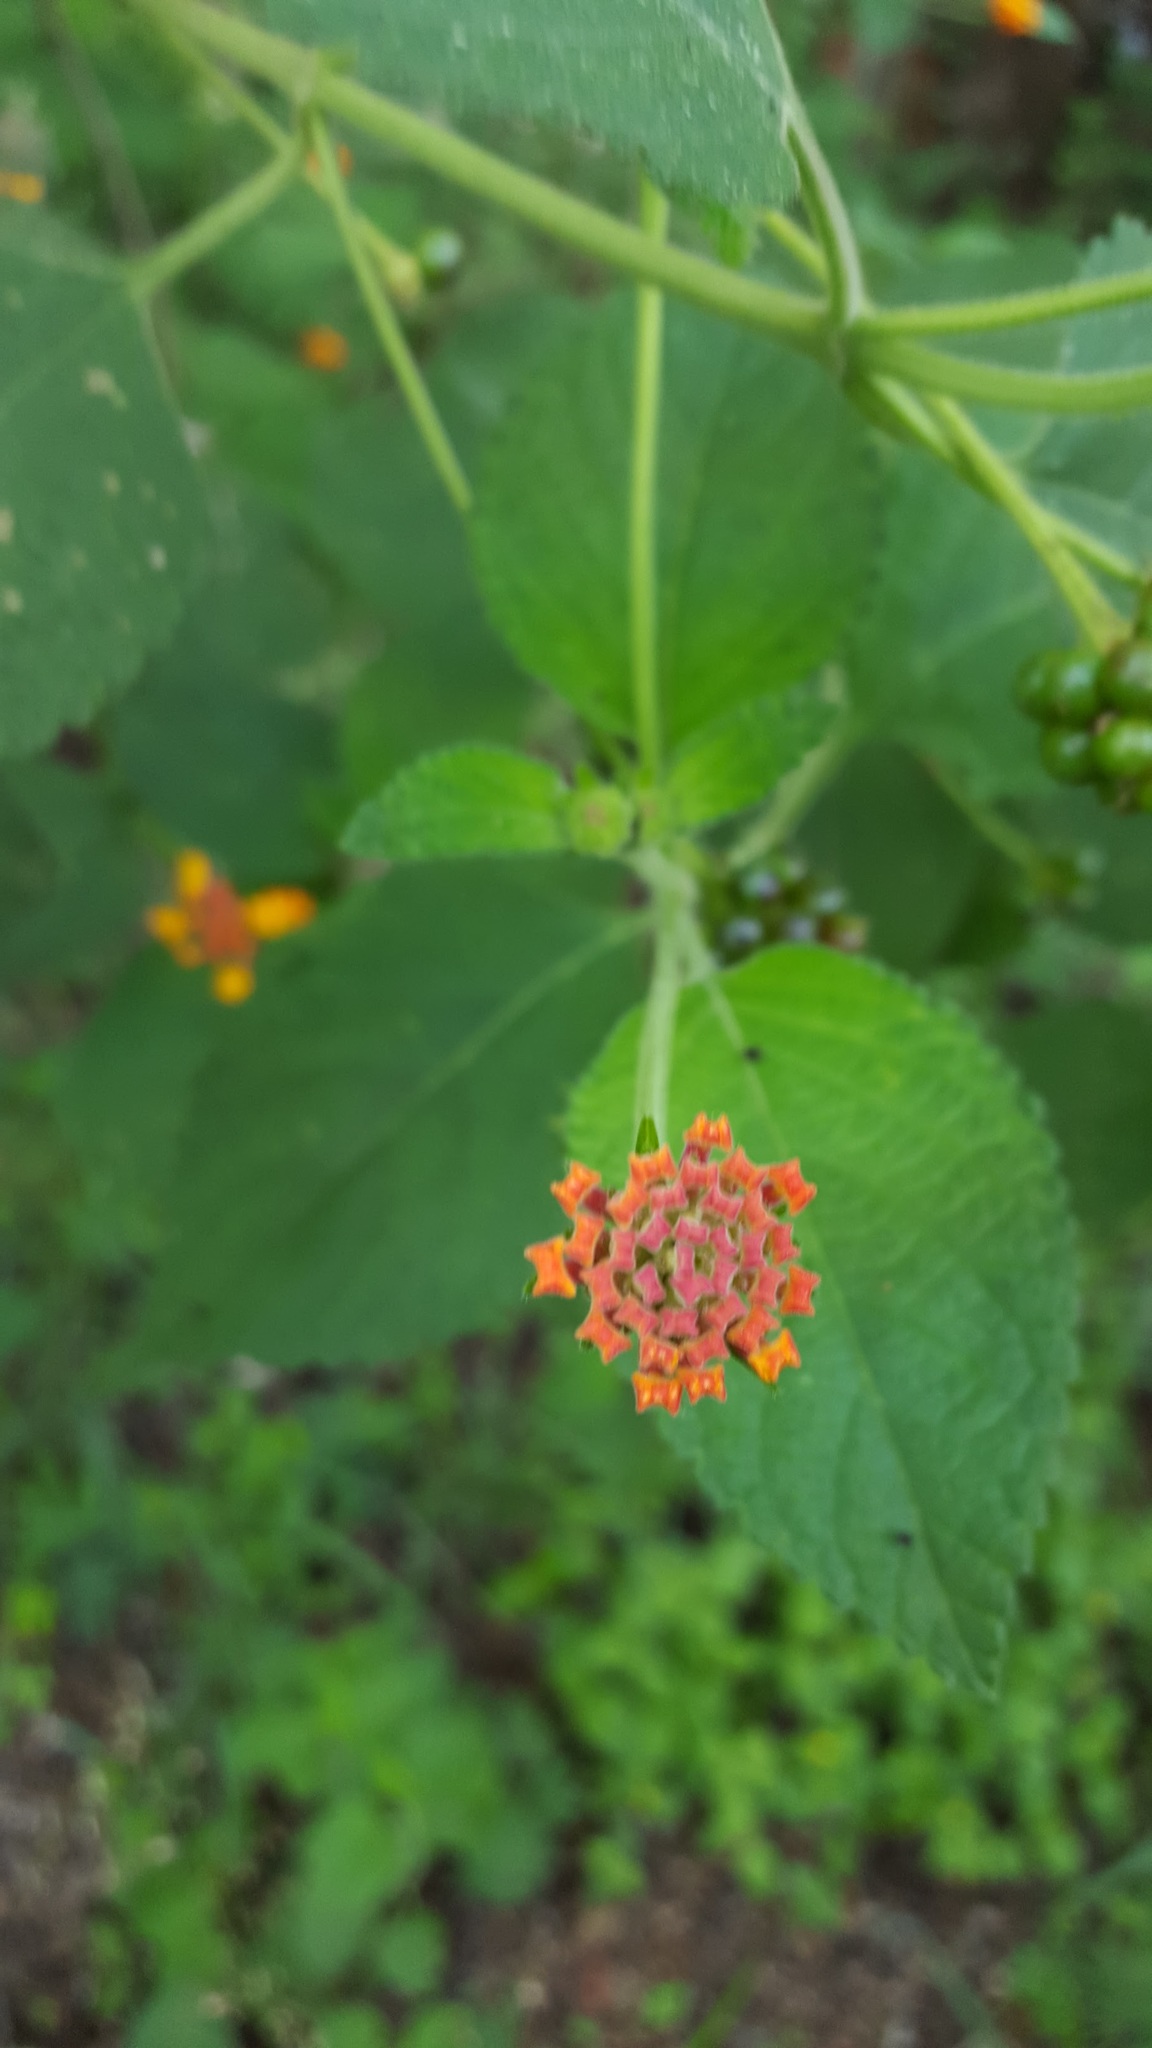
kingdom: Plantae
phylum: Tracheophyta
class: Magnoliopsida
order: Lamiales
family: Verbenaceae
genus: Lantana
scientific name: Lantana camara
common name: Lantana
